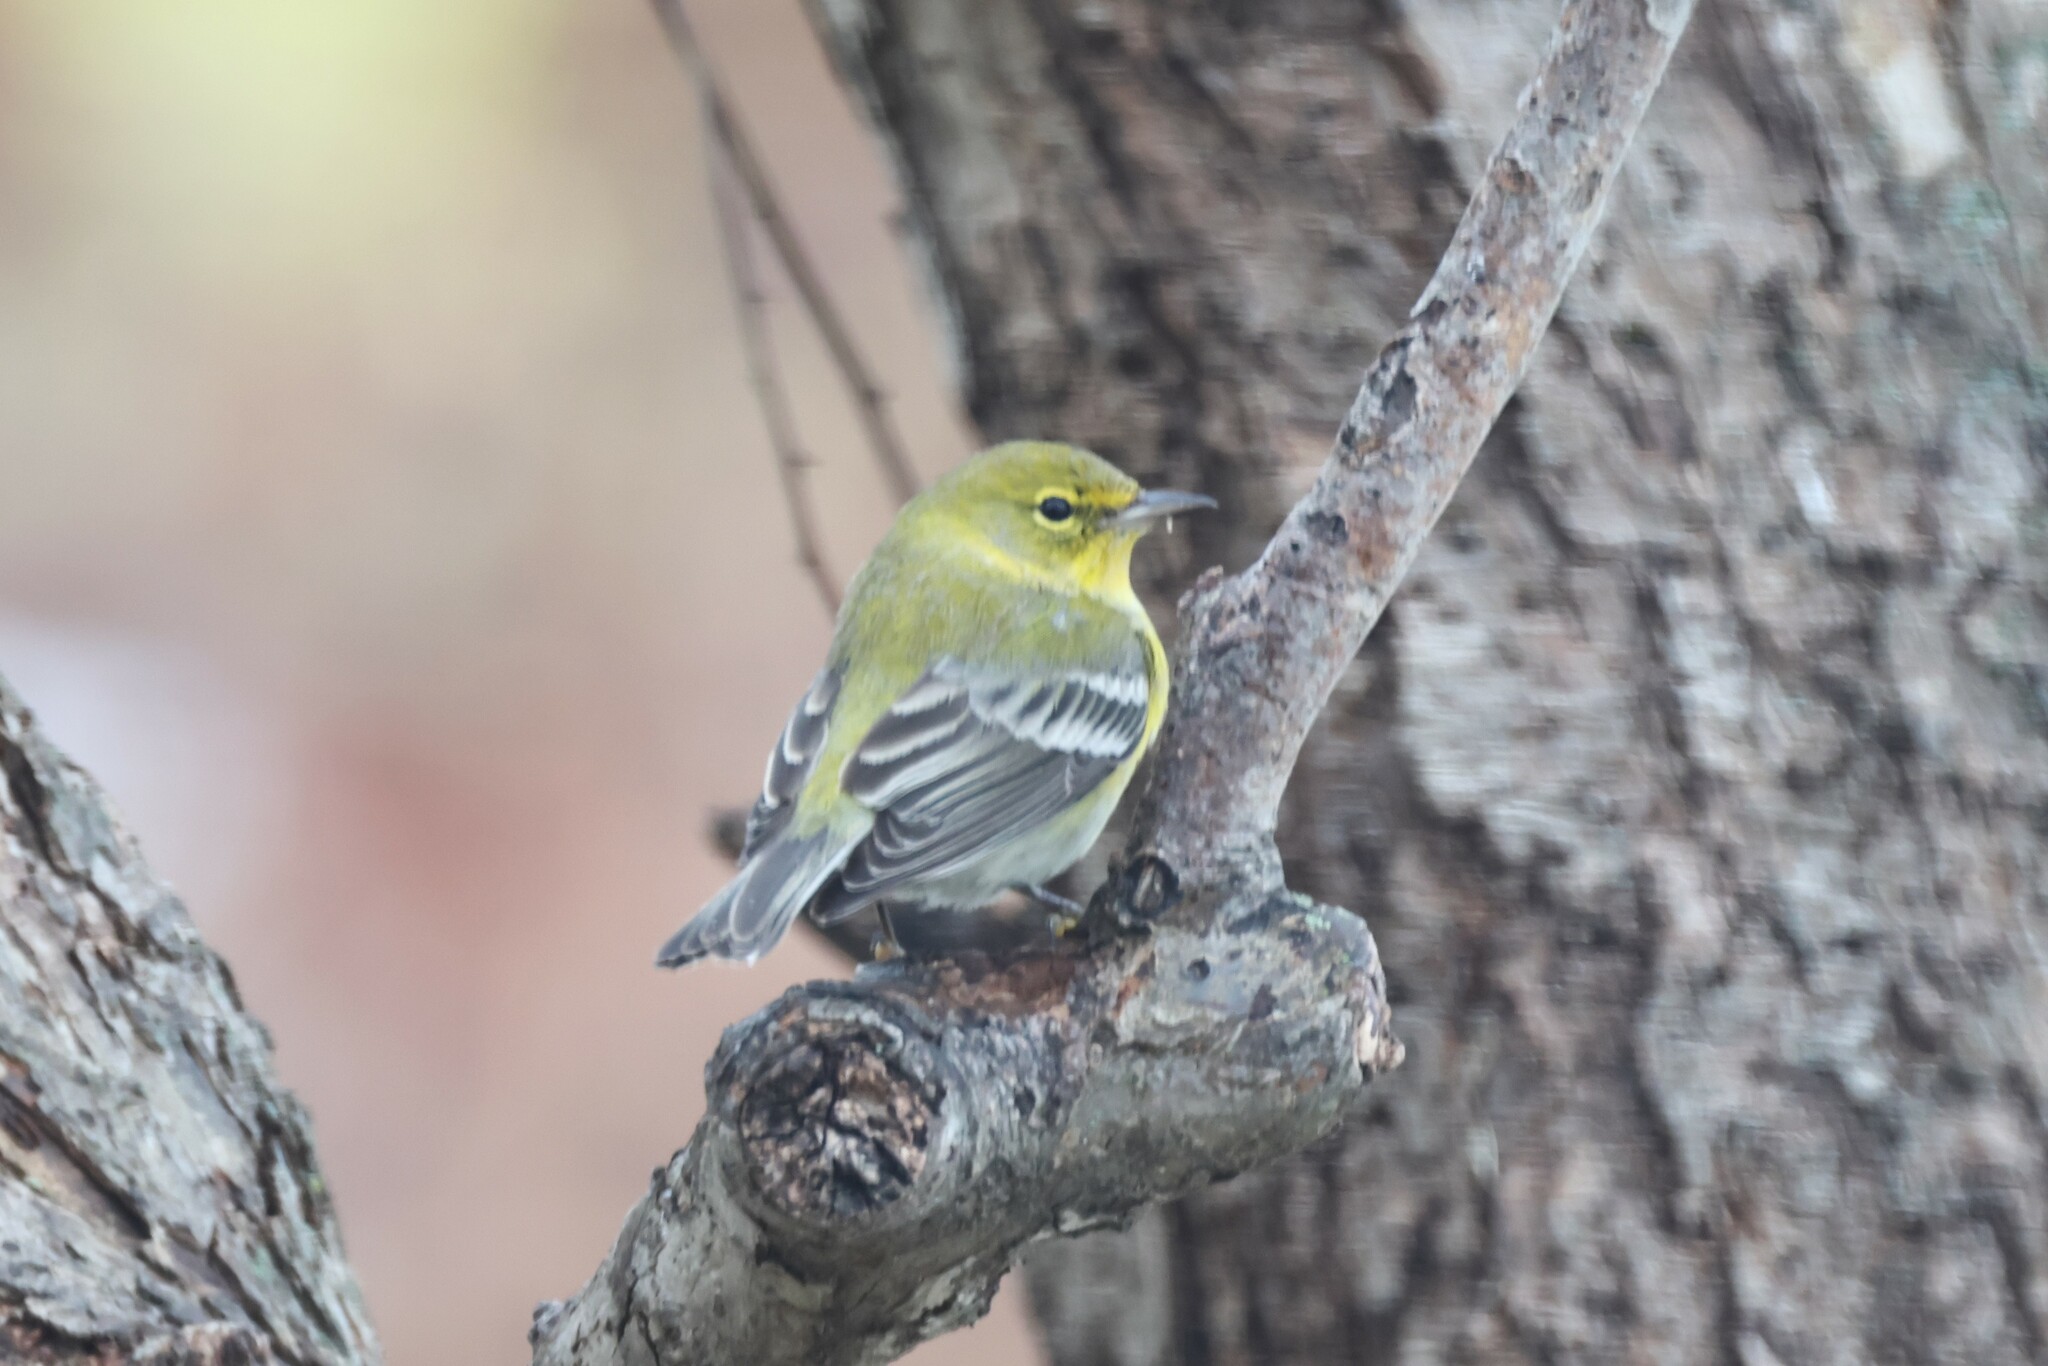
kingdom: Animalia
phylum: Chordata
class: Aves
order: Passeriformes
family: Parulidae
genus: Setophaga
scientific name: Setophaga pinus
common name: Pine warbler
